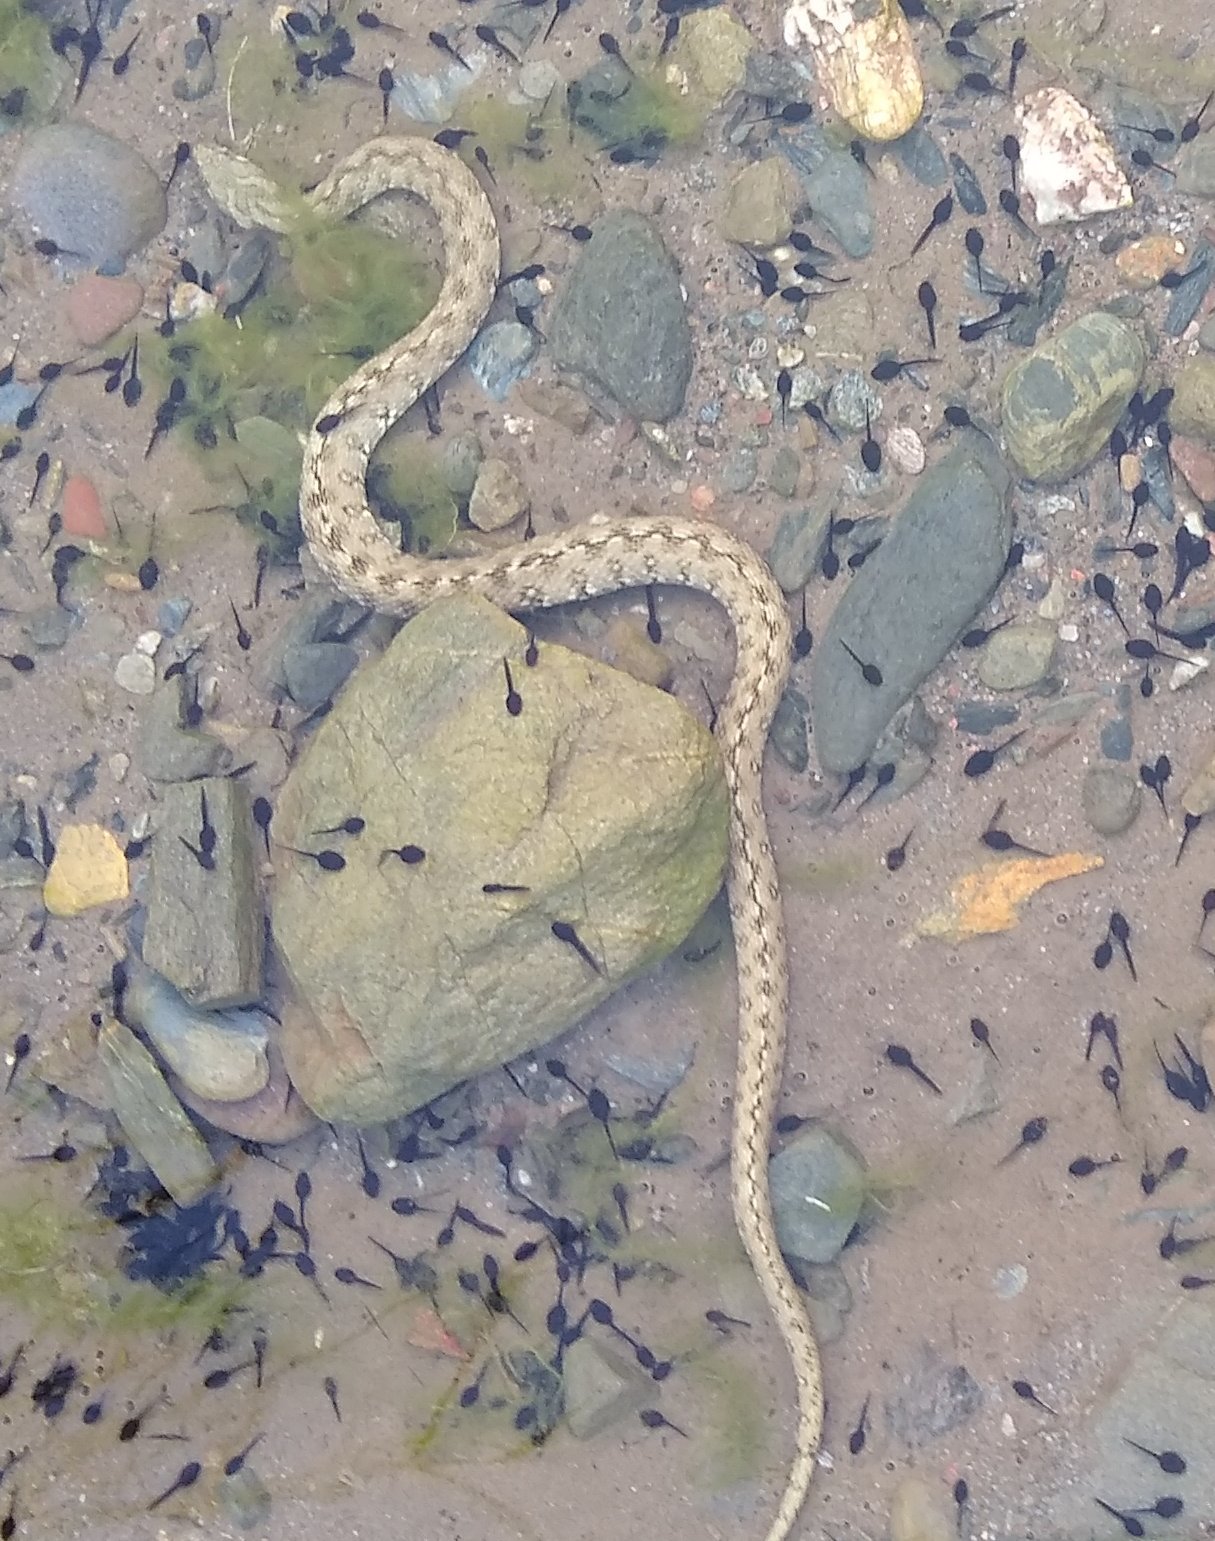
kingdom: Animalia
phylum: Chordata
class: Squamata
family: Colubridae
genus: Natrix
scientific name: Natrix maura
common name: Viperine water snake
